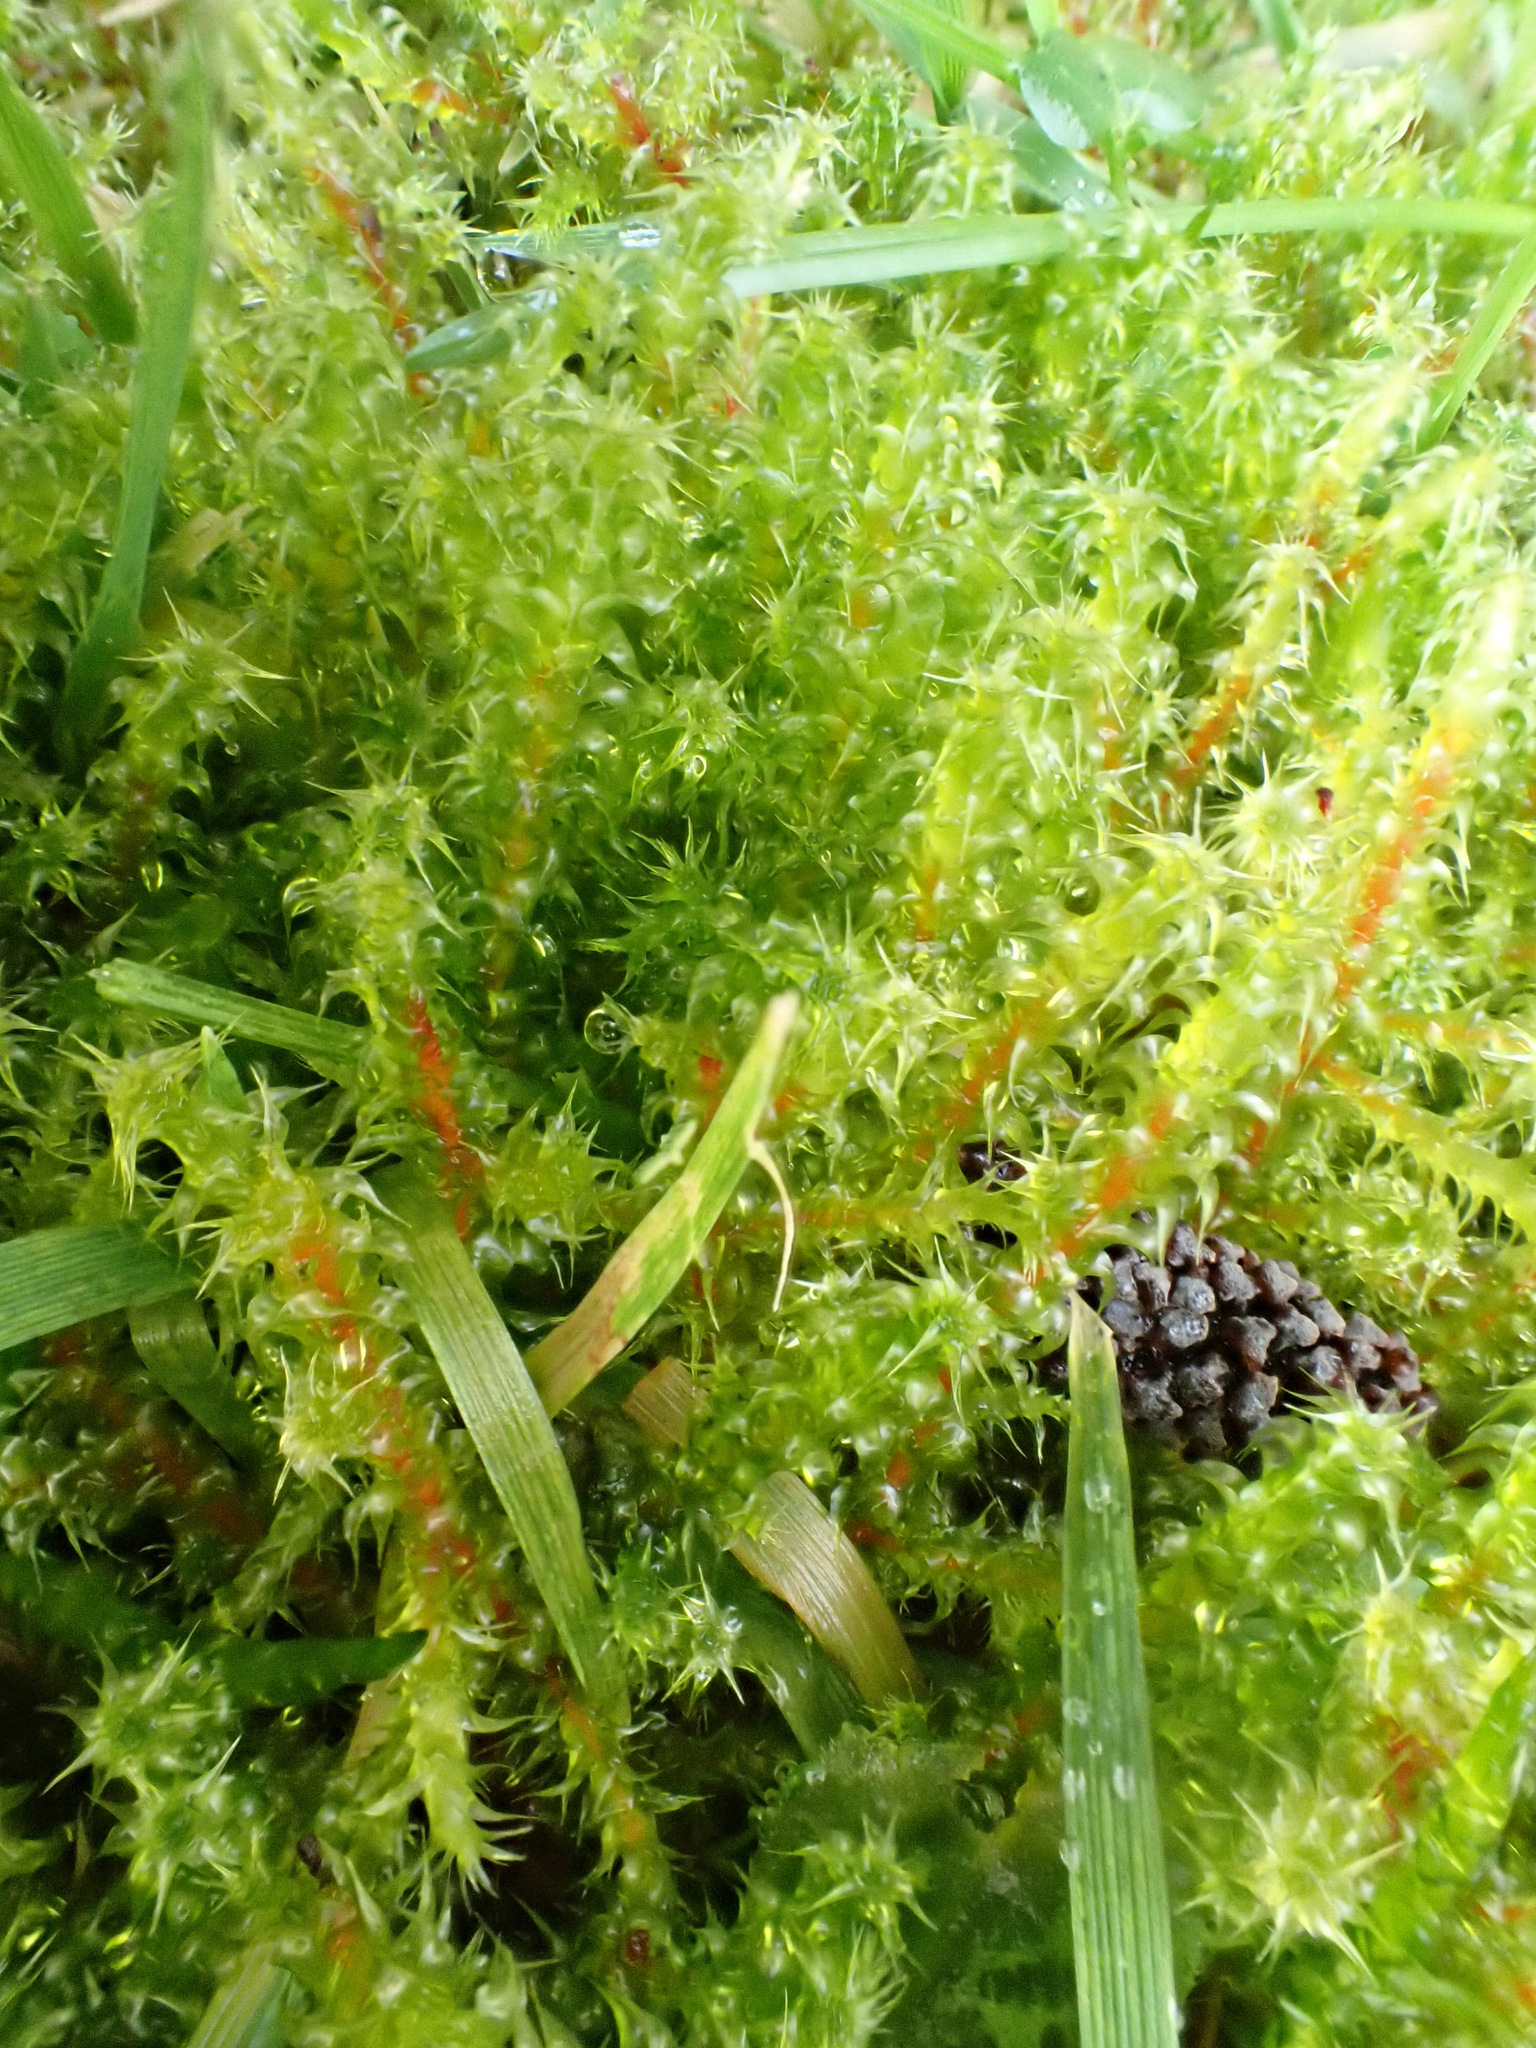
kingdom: Plantae
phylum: Bryophyta
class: Bryopsida
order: Hypnales
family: Hylocomiaceae
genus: Rhytidiadelphus
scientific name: Rhytidiadelphus squarrosus
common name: Springy turf-moss
